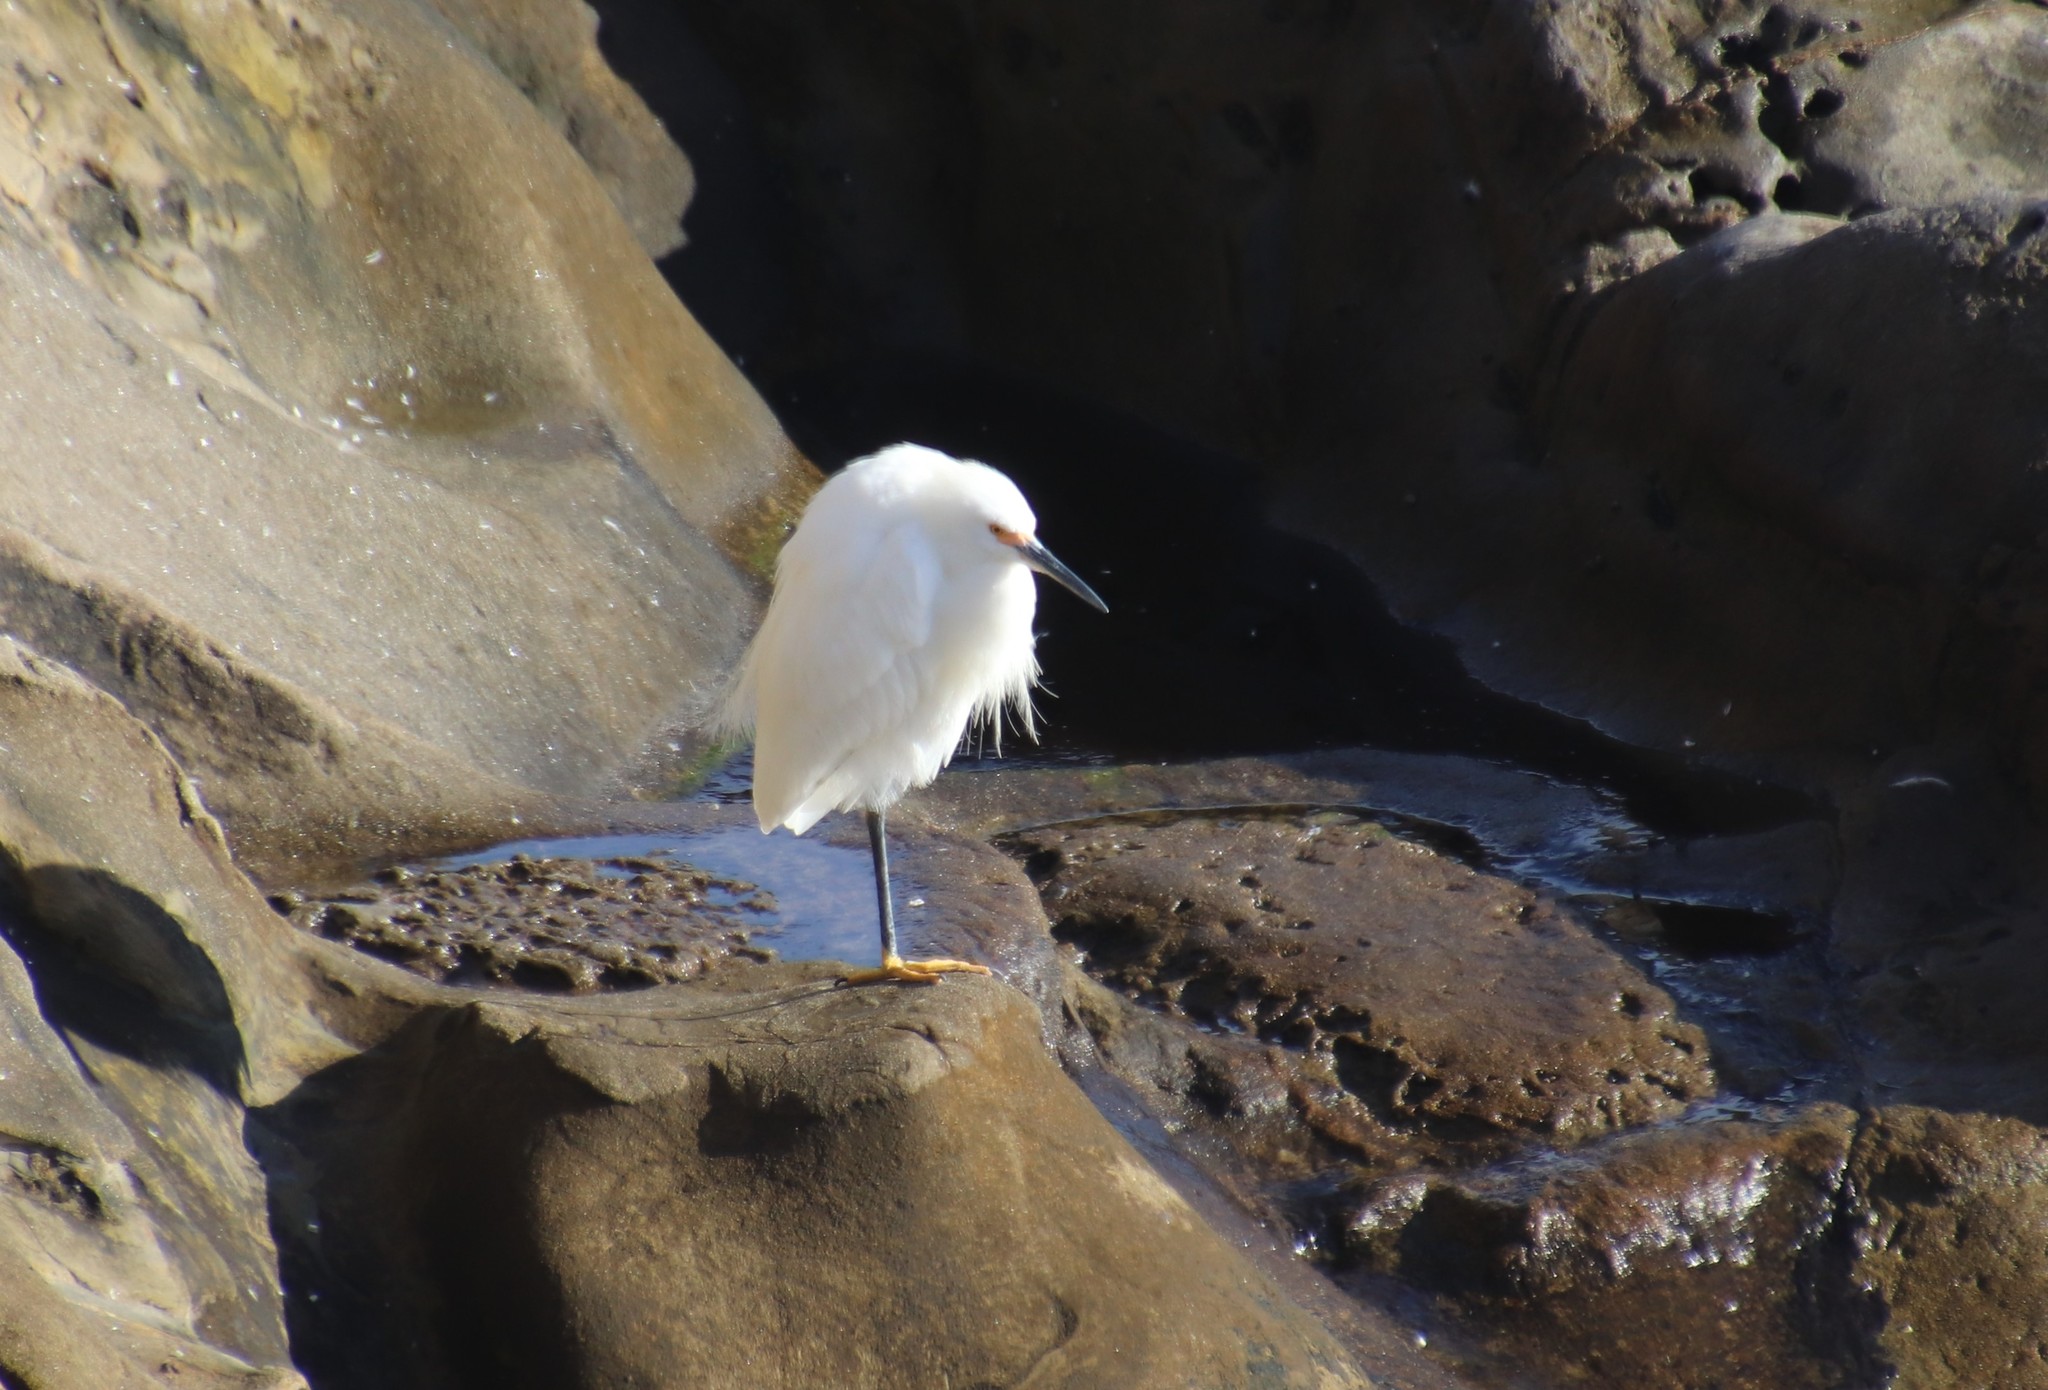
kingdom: Animalia
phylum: Chordata
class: Aves
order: Pelecaniformes
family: Ardeidae
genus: Egretta
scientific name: Egretta thula
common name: Snowy egret
